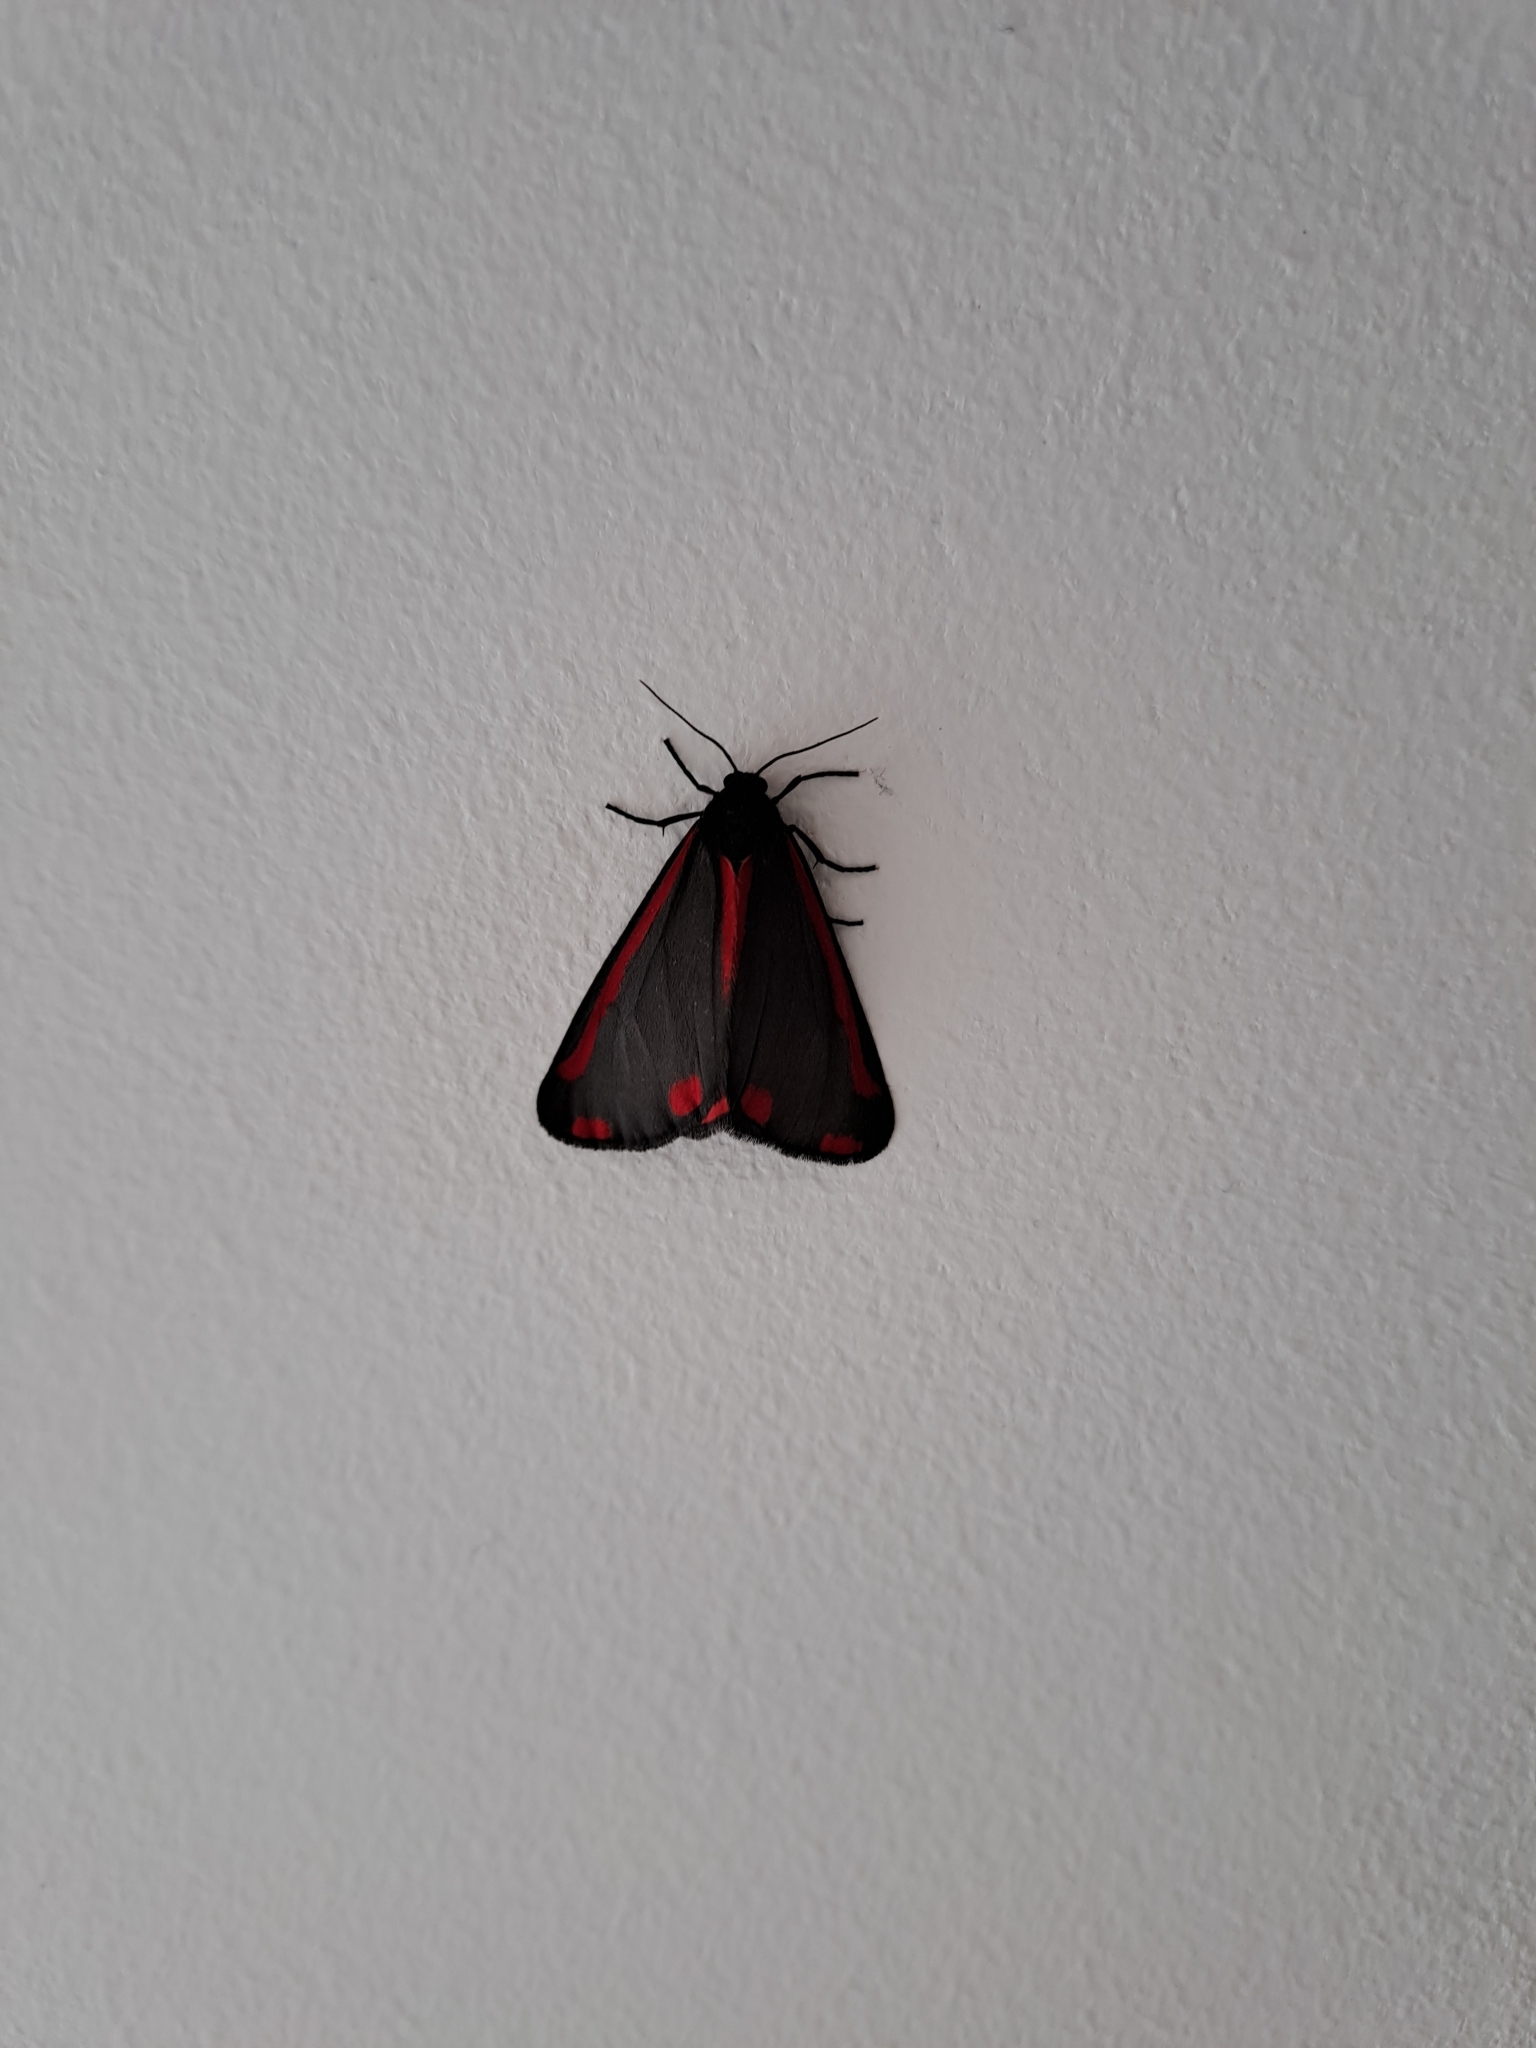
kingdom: Animalia
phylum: Arthropoda
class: Insecta
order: Lepidoptera
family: Erebidae
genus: Tyria
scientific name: Tyria jacobaeae
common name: Cinnabar
